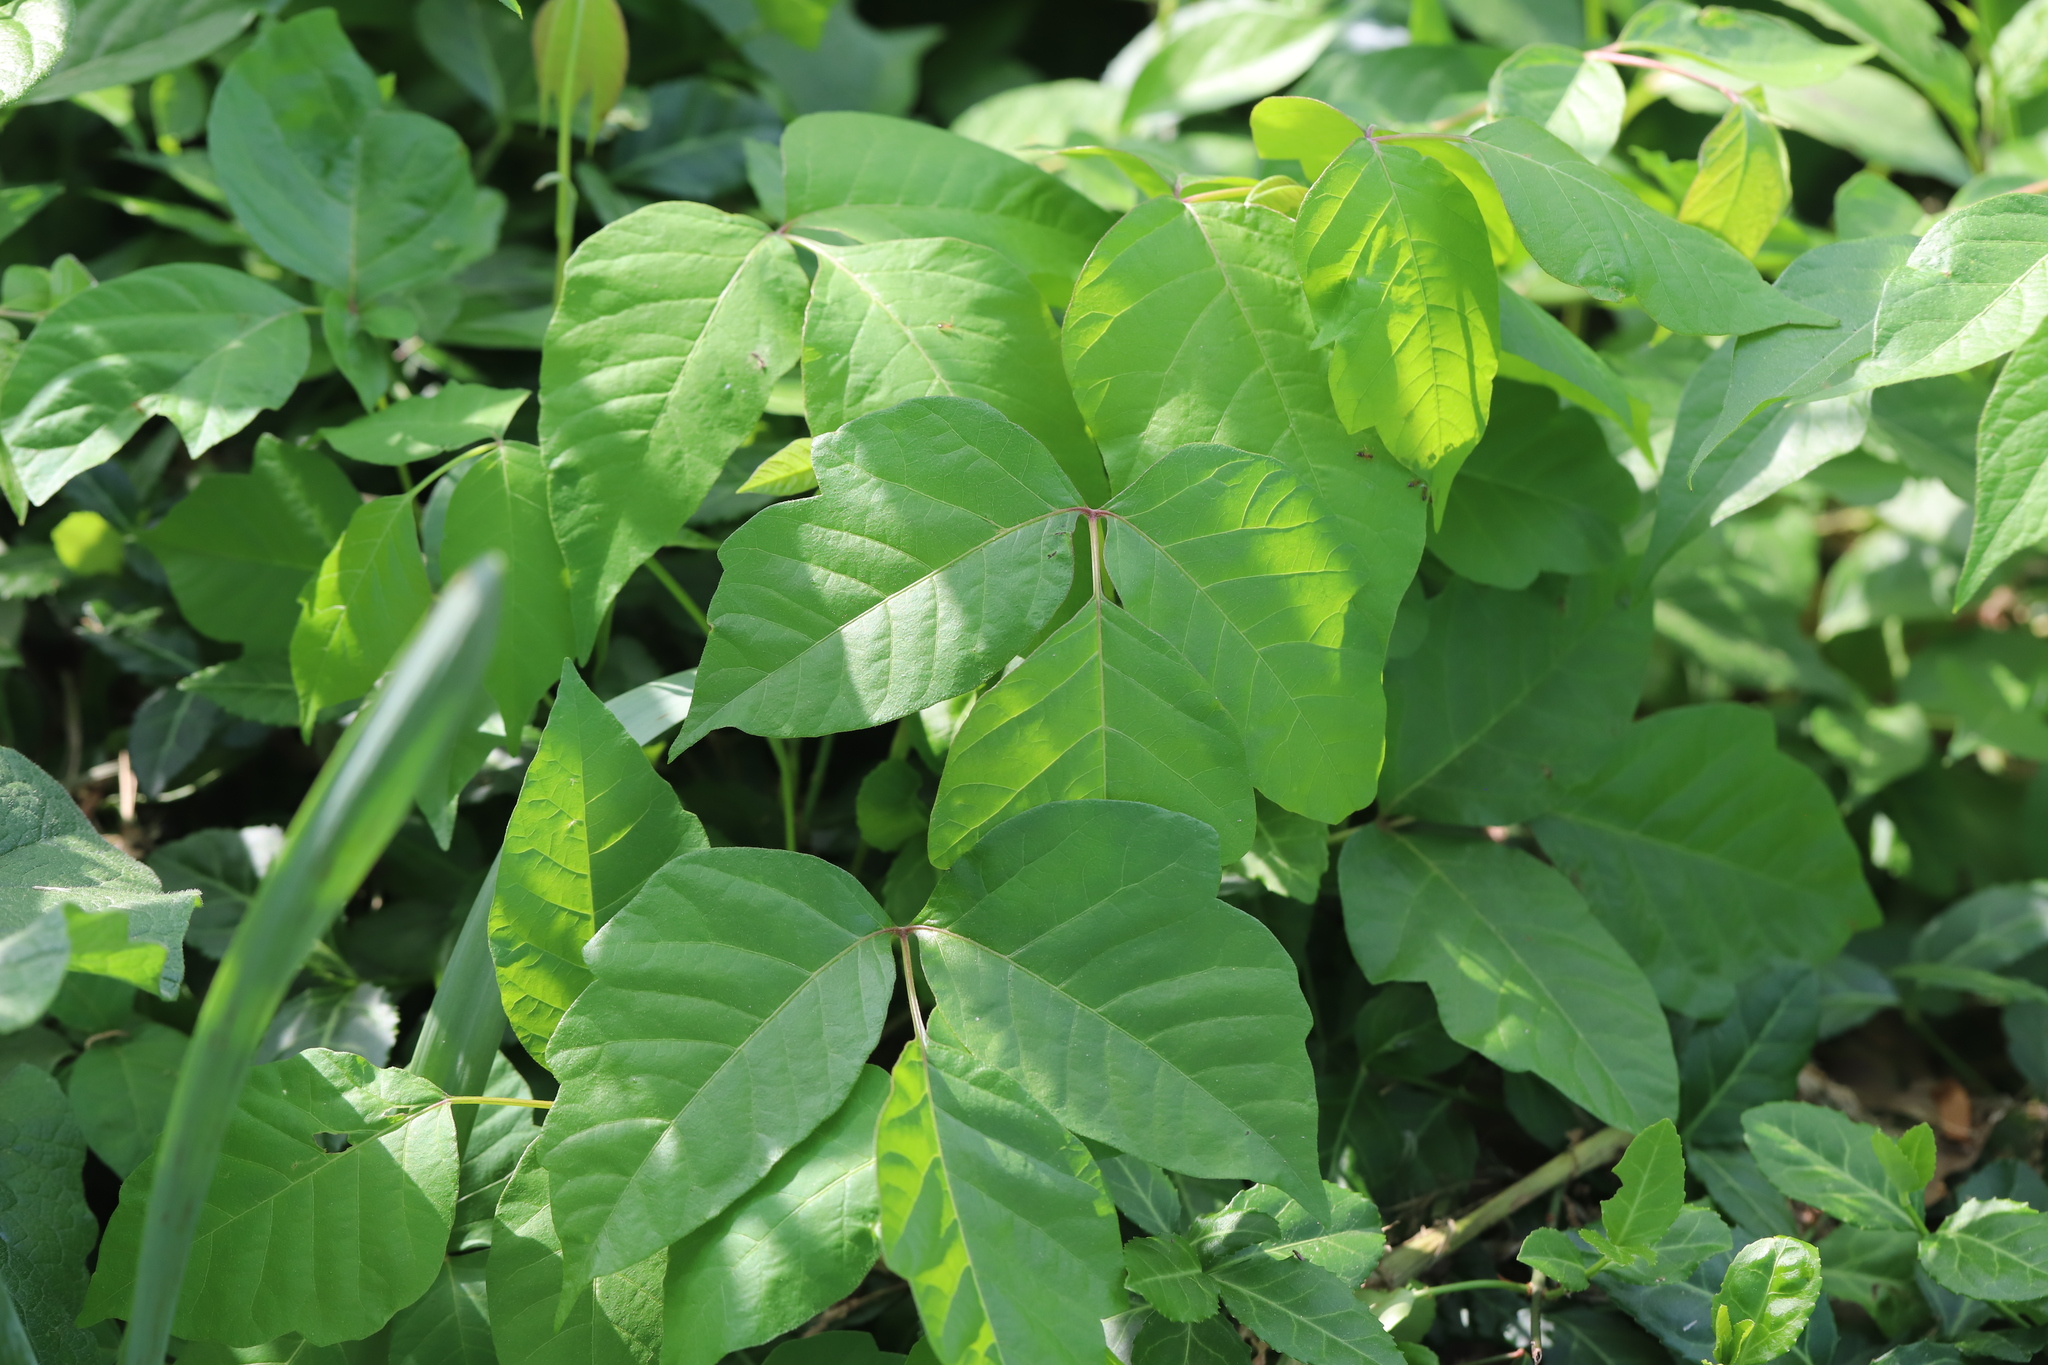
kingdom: Plantae
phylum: Tracheophyta
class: Magnoliopsida
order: Sapindales
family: Anacardiaceae
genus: Toxicodendron
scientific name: Toxicodendron radicans
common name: Poison ivy
